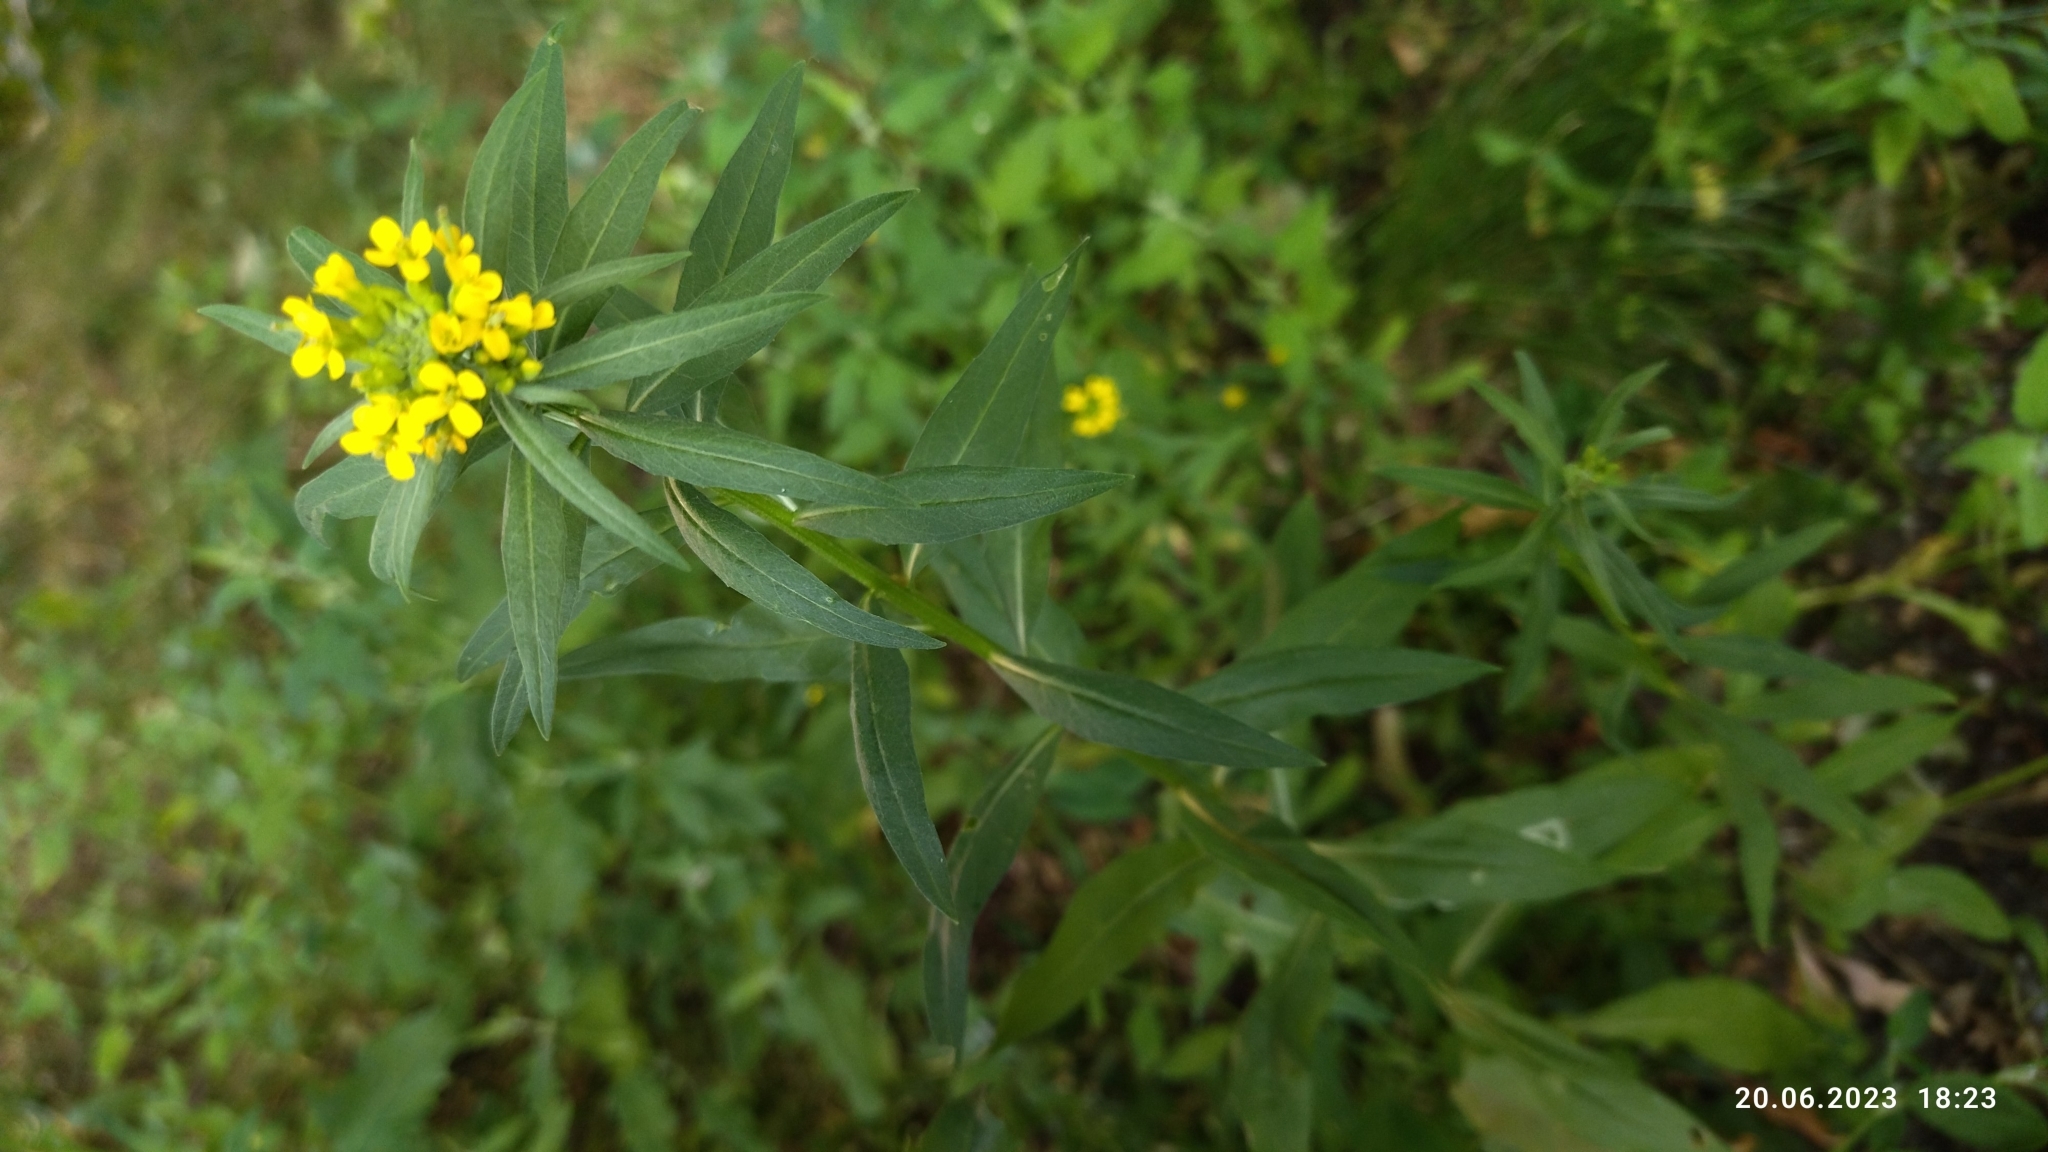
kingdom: Plantae
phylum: Tracheophyta
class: Magnoliopsida
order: Brassicales
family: Brassicaceae
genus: Erysimum
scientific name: Erysimum cheiranthoides
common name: Treacle mustard
